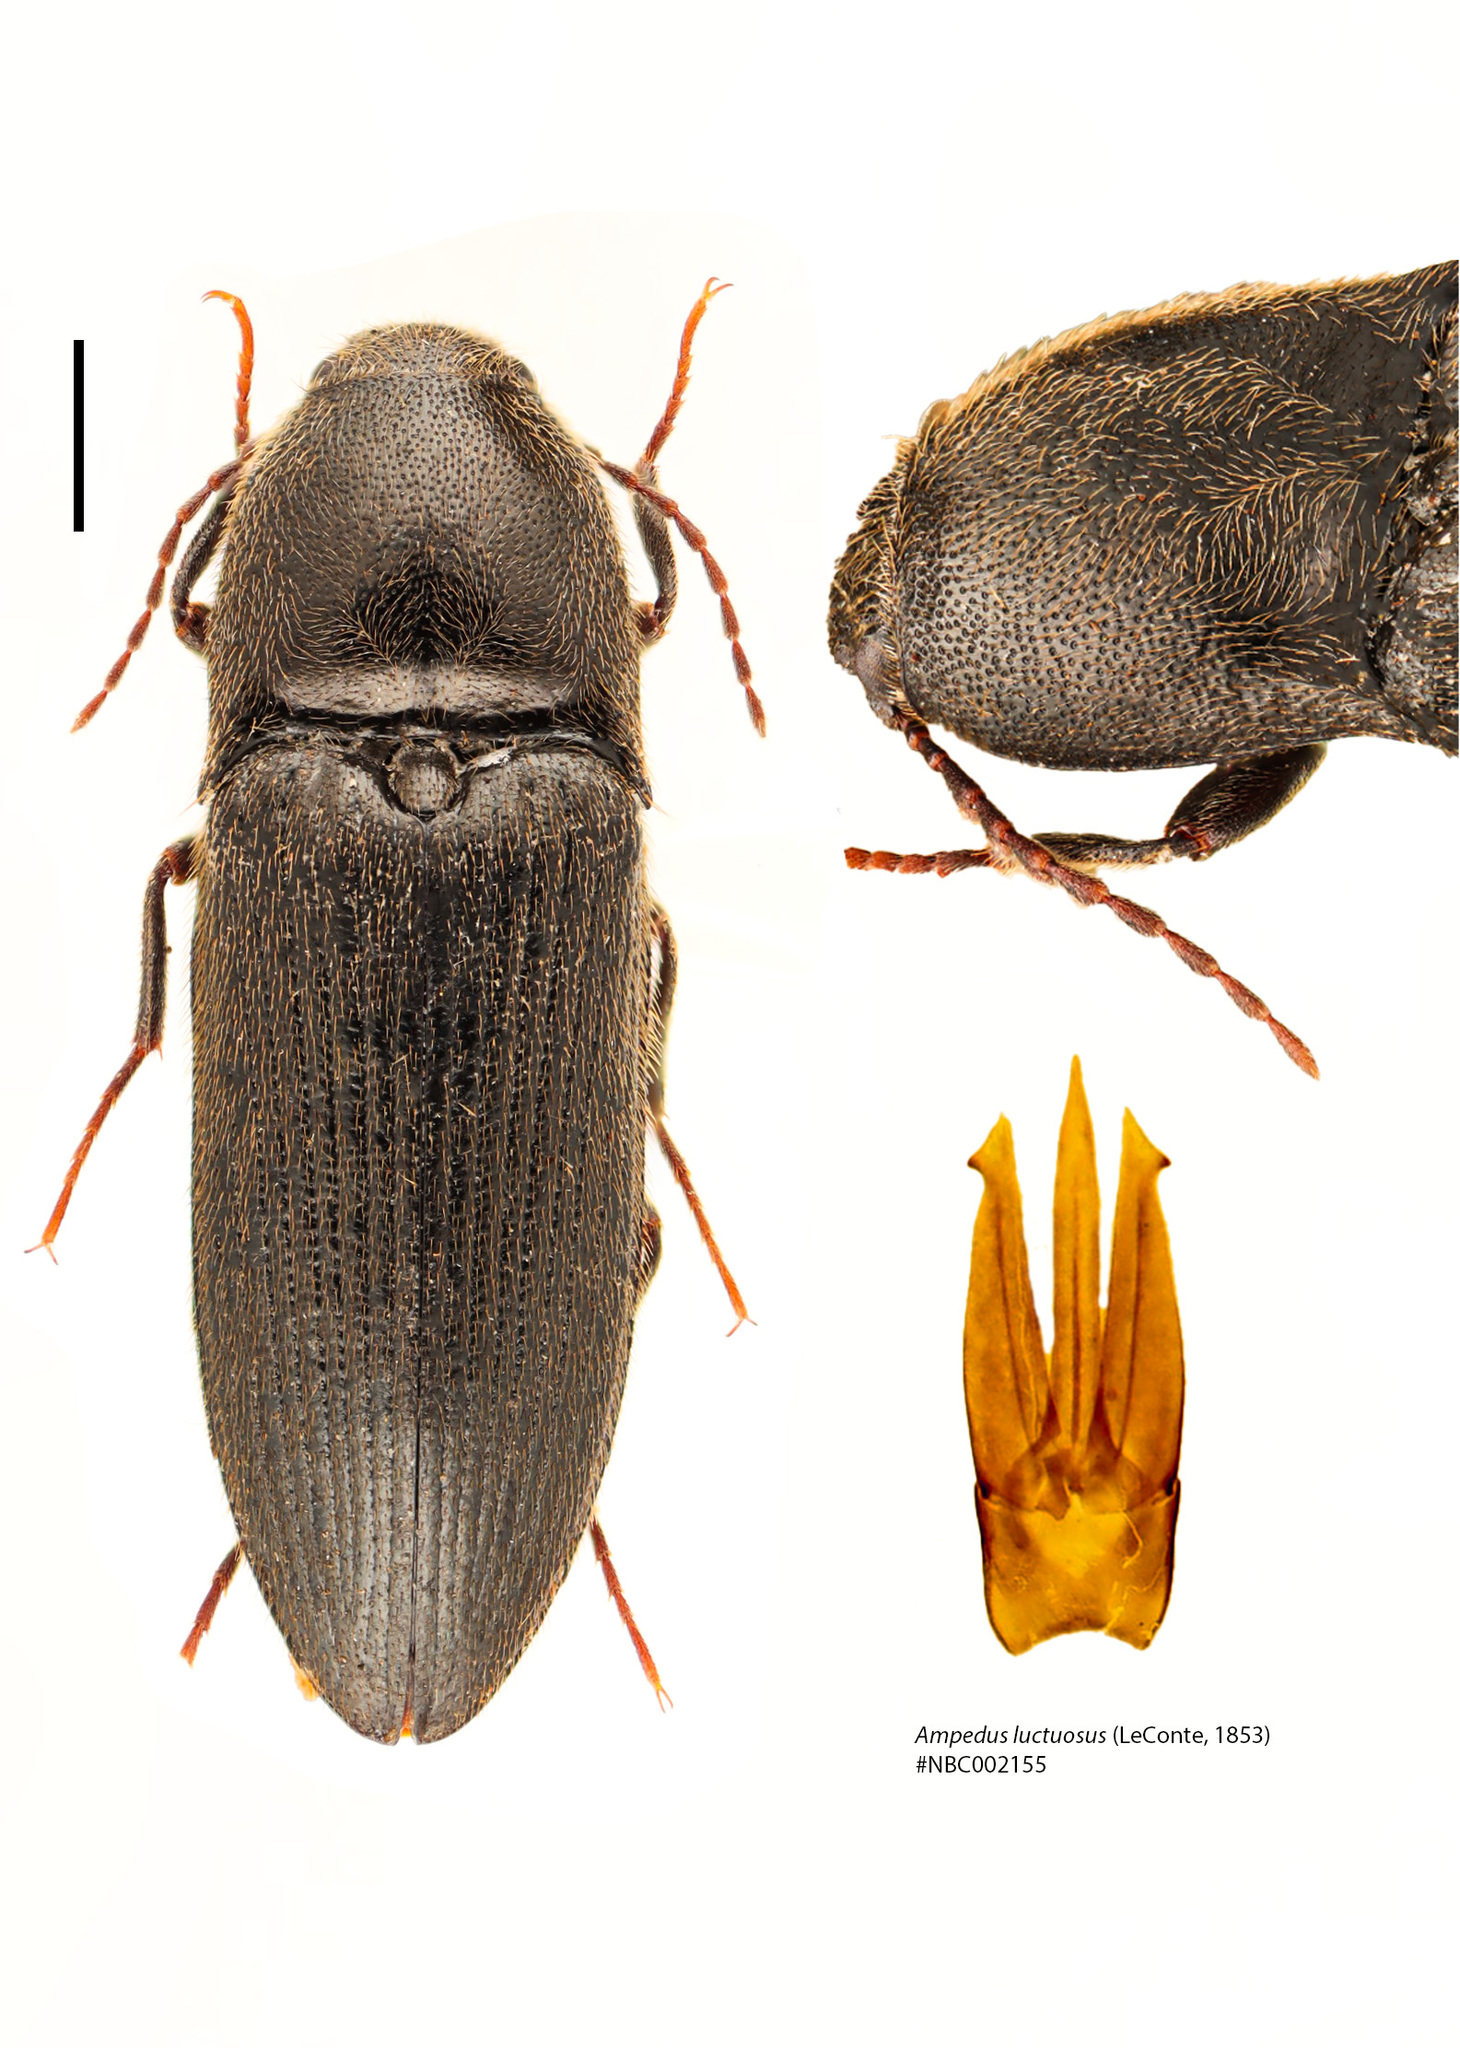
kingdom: Animalia
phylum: Arthropoda
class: Insecta
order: Coleoptera
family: Elateridae
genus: Ampedus
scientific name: Ampedus luctuosus
